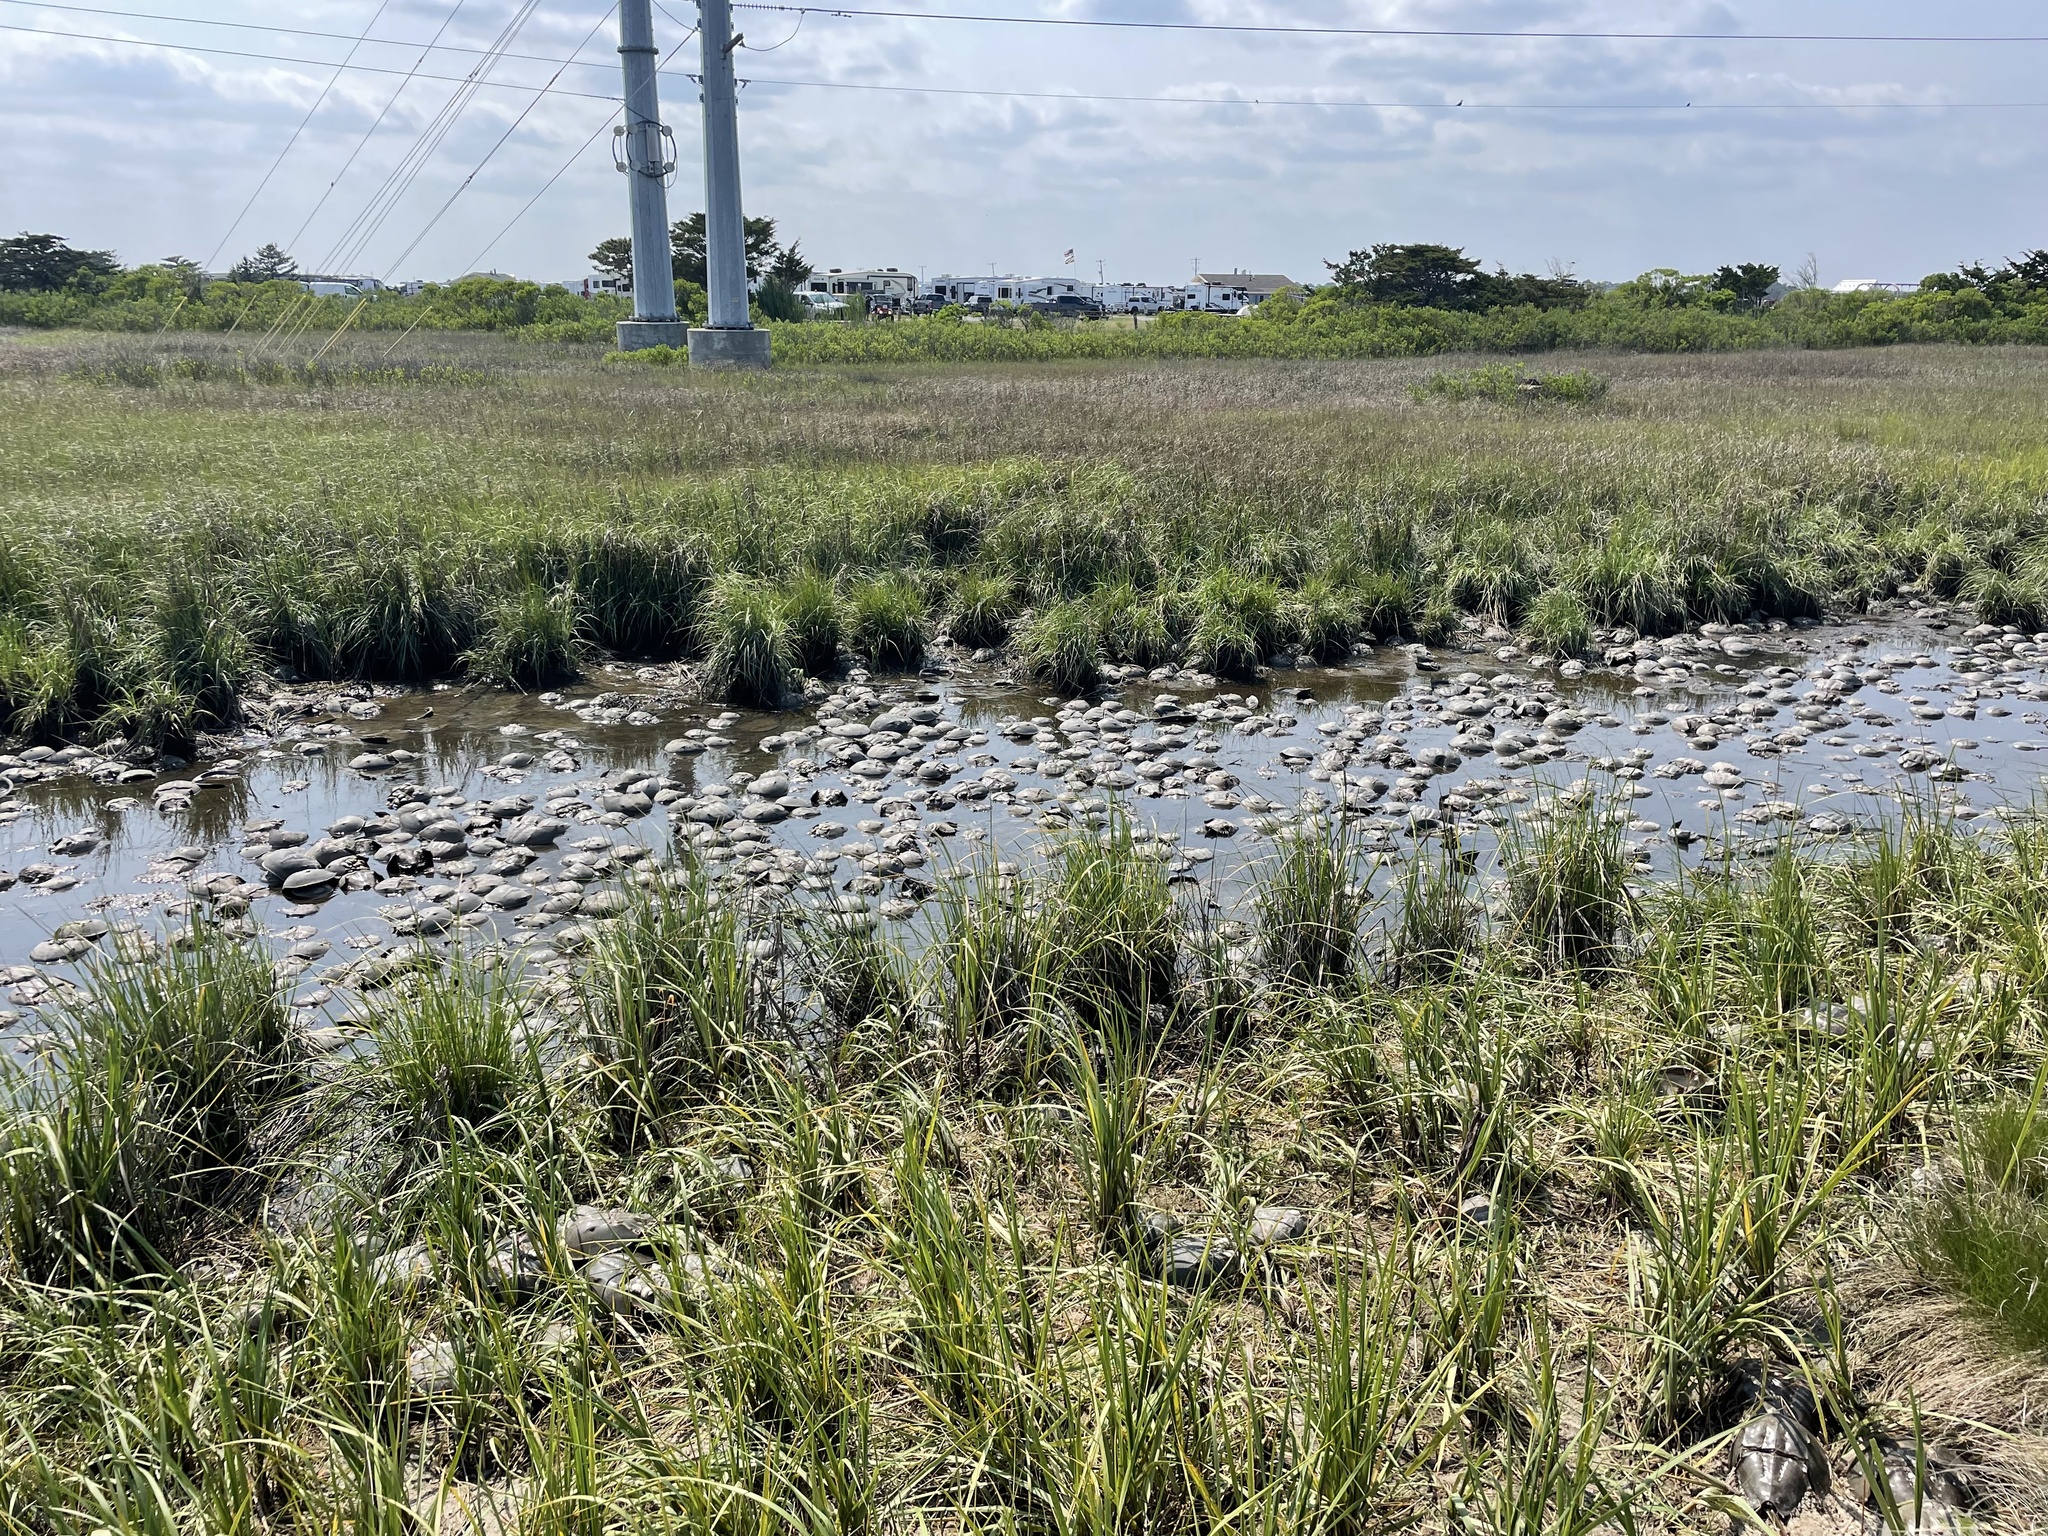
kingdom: Animalia
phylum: Arthropoda
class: Merostomata
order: Xiphosurida
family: Limulidae
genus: Limulus
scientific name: Limulus polyphemus
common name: Horseshoe crab
